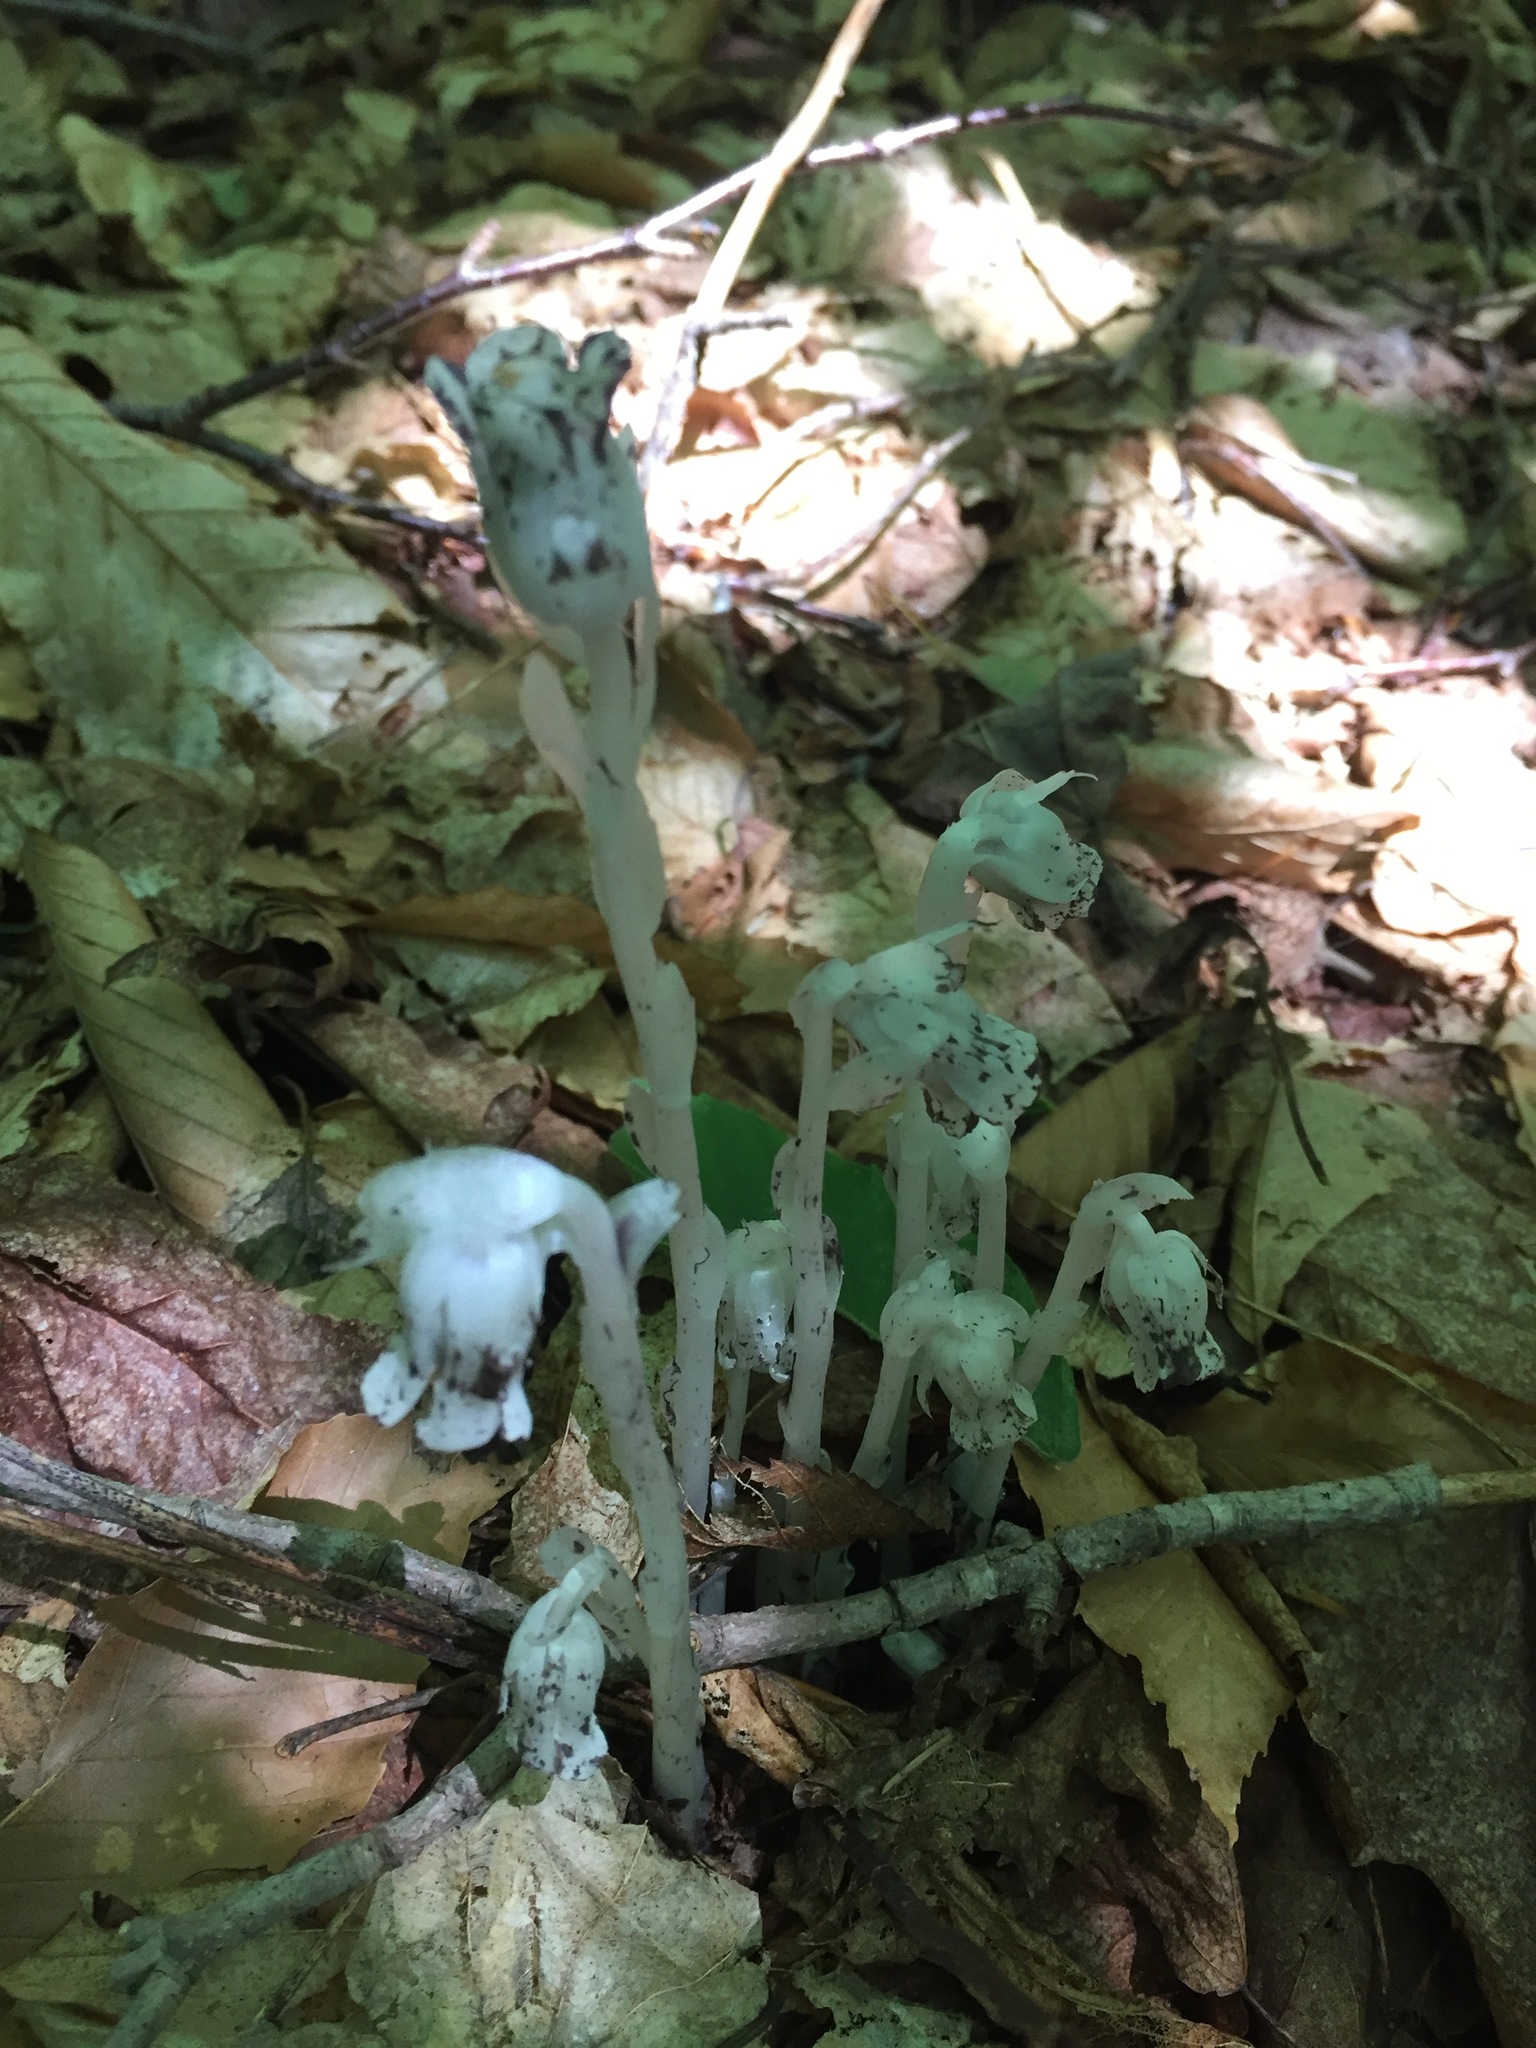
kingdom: Plantae
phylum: Tracheophyta
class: Magnoliopsida
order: Ericales
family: Ericaceae
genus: Monotropa
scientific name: Monotropa uniflora
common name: Convulsion root
